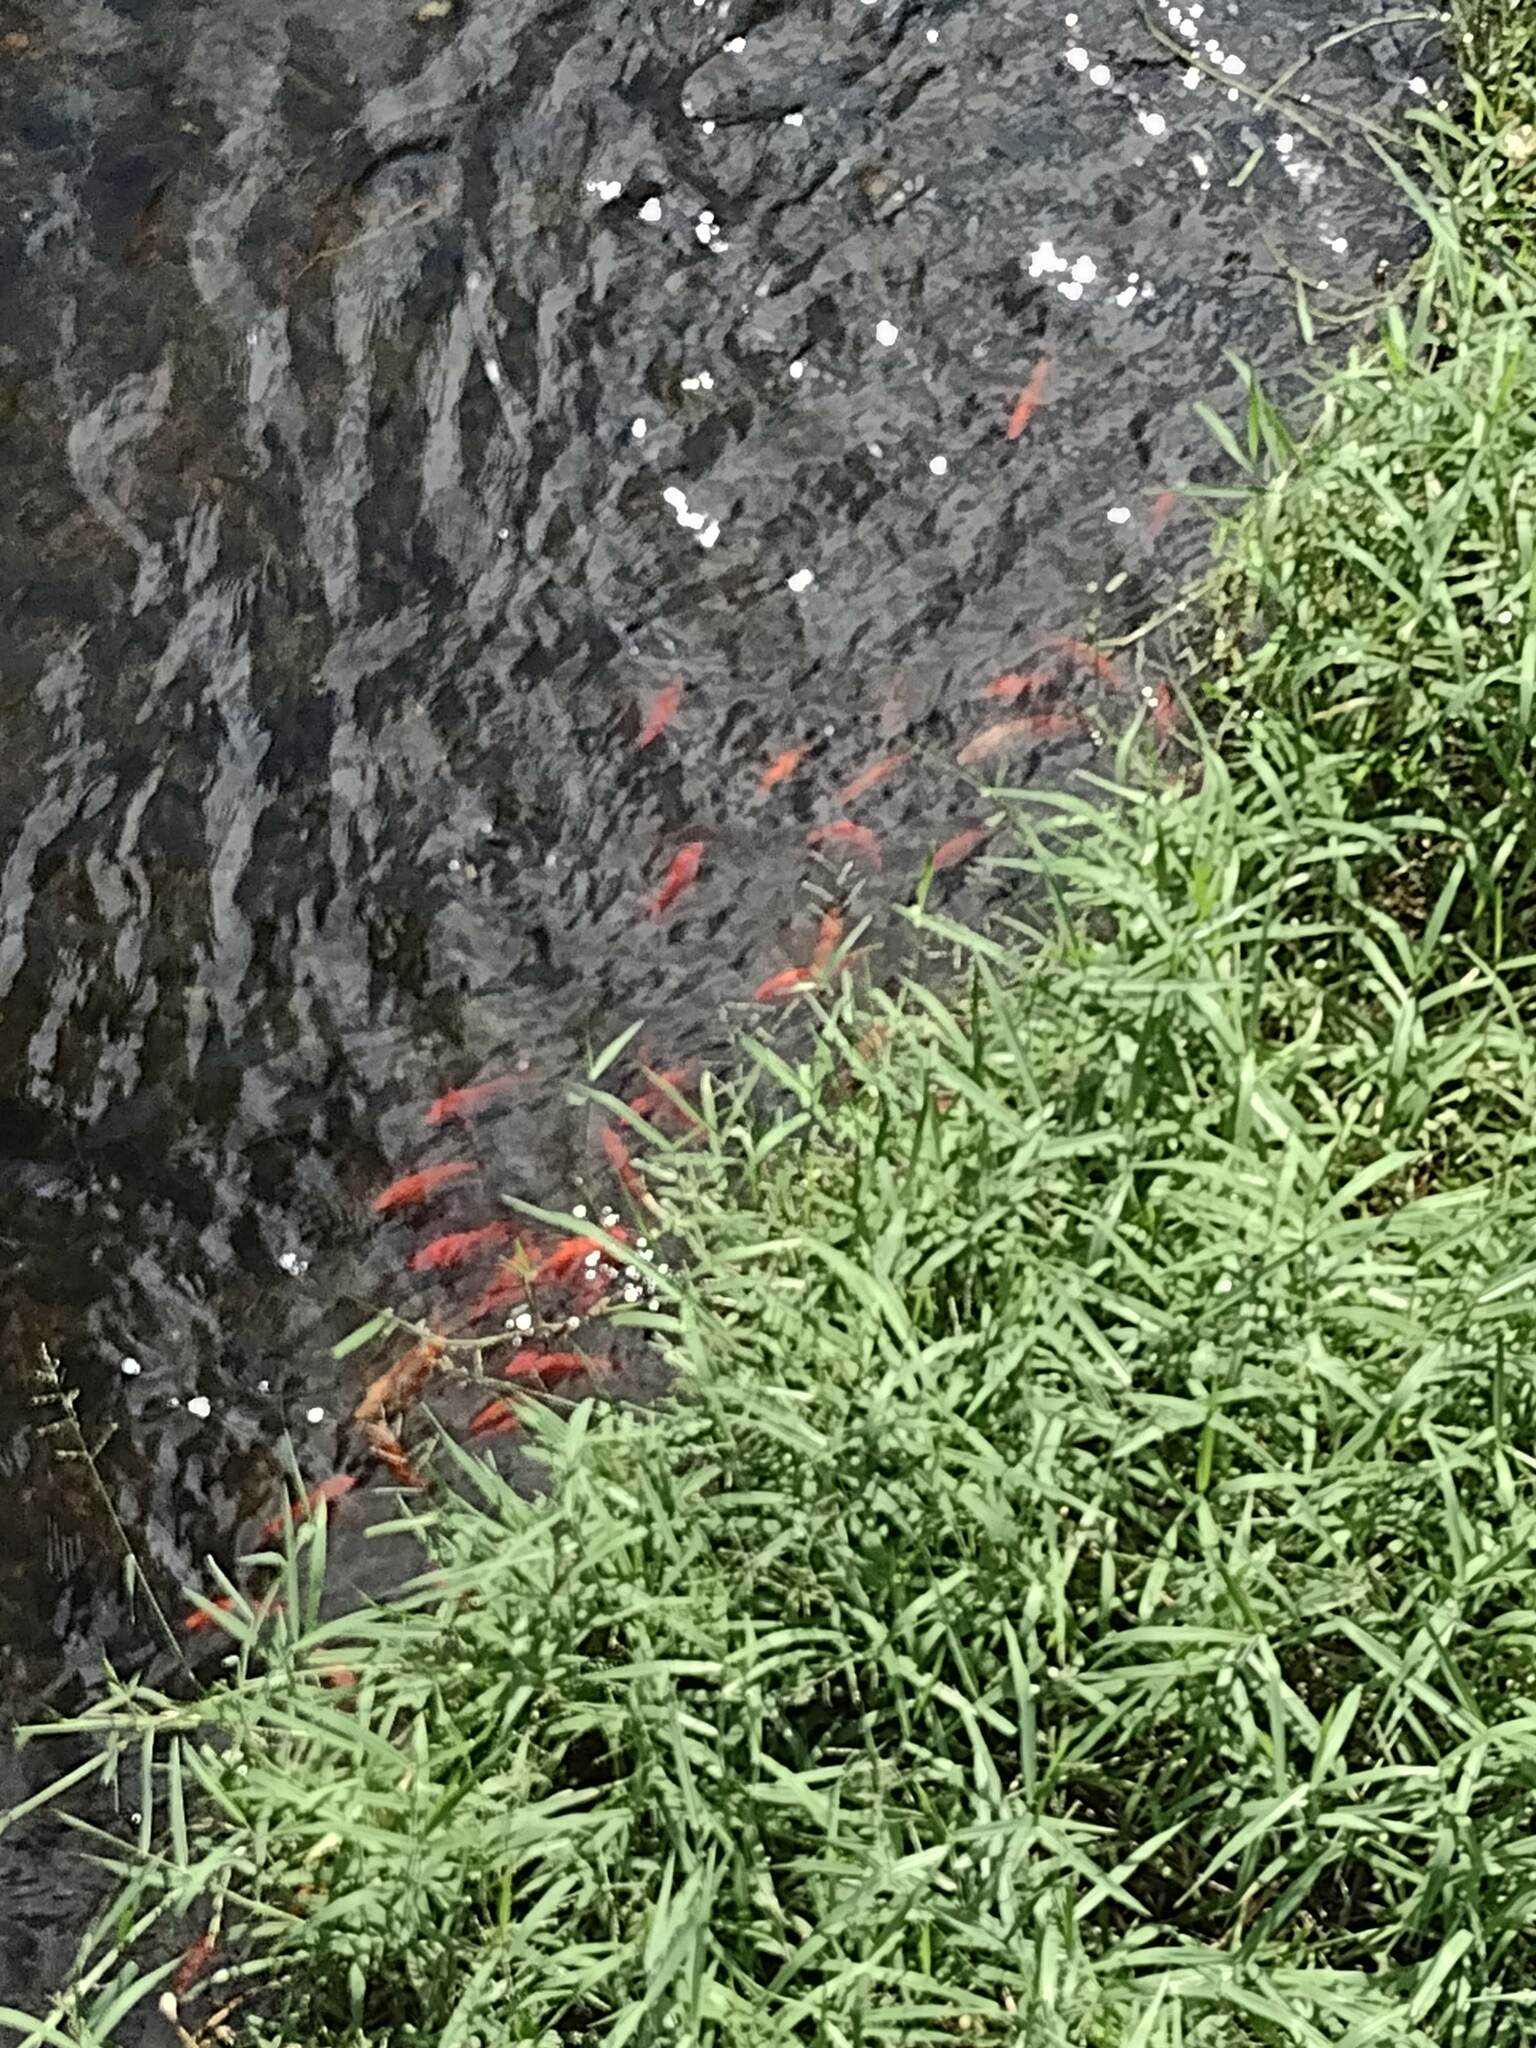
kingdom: Animalia
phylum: Chordata
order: Cypriniformes
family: Cyprinidae
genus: Cyprinus
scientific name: Cyprinus rubrofuscus
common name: Koi
